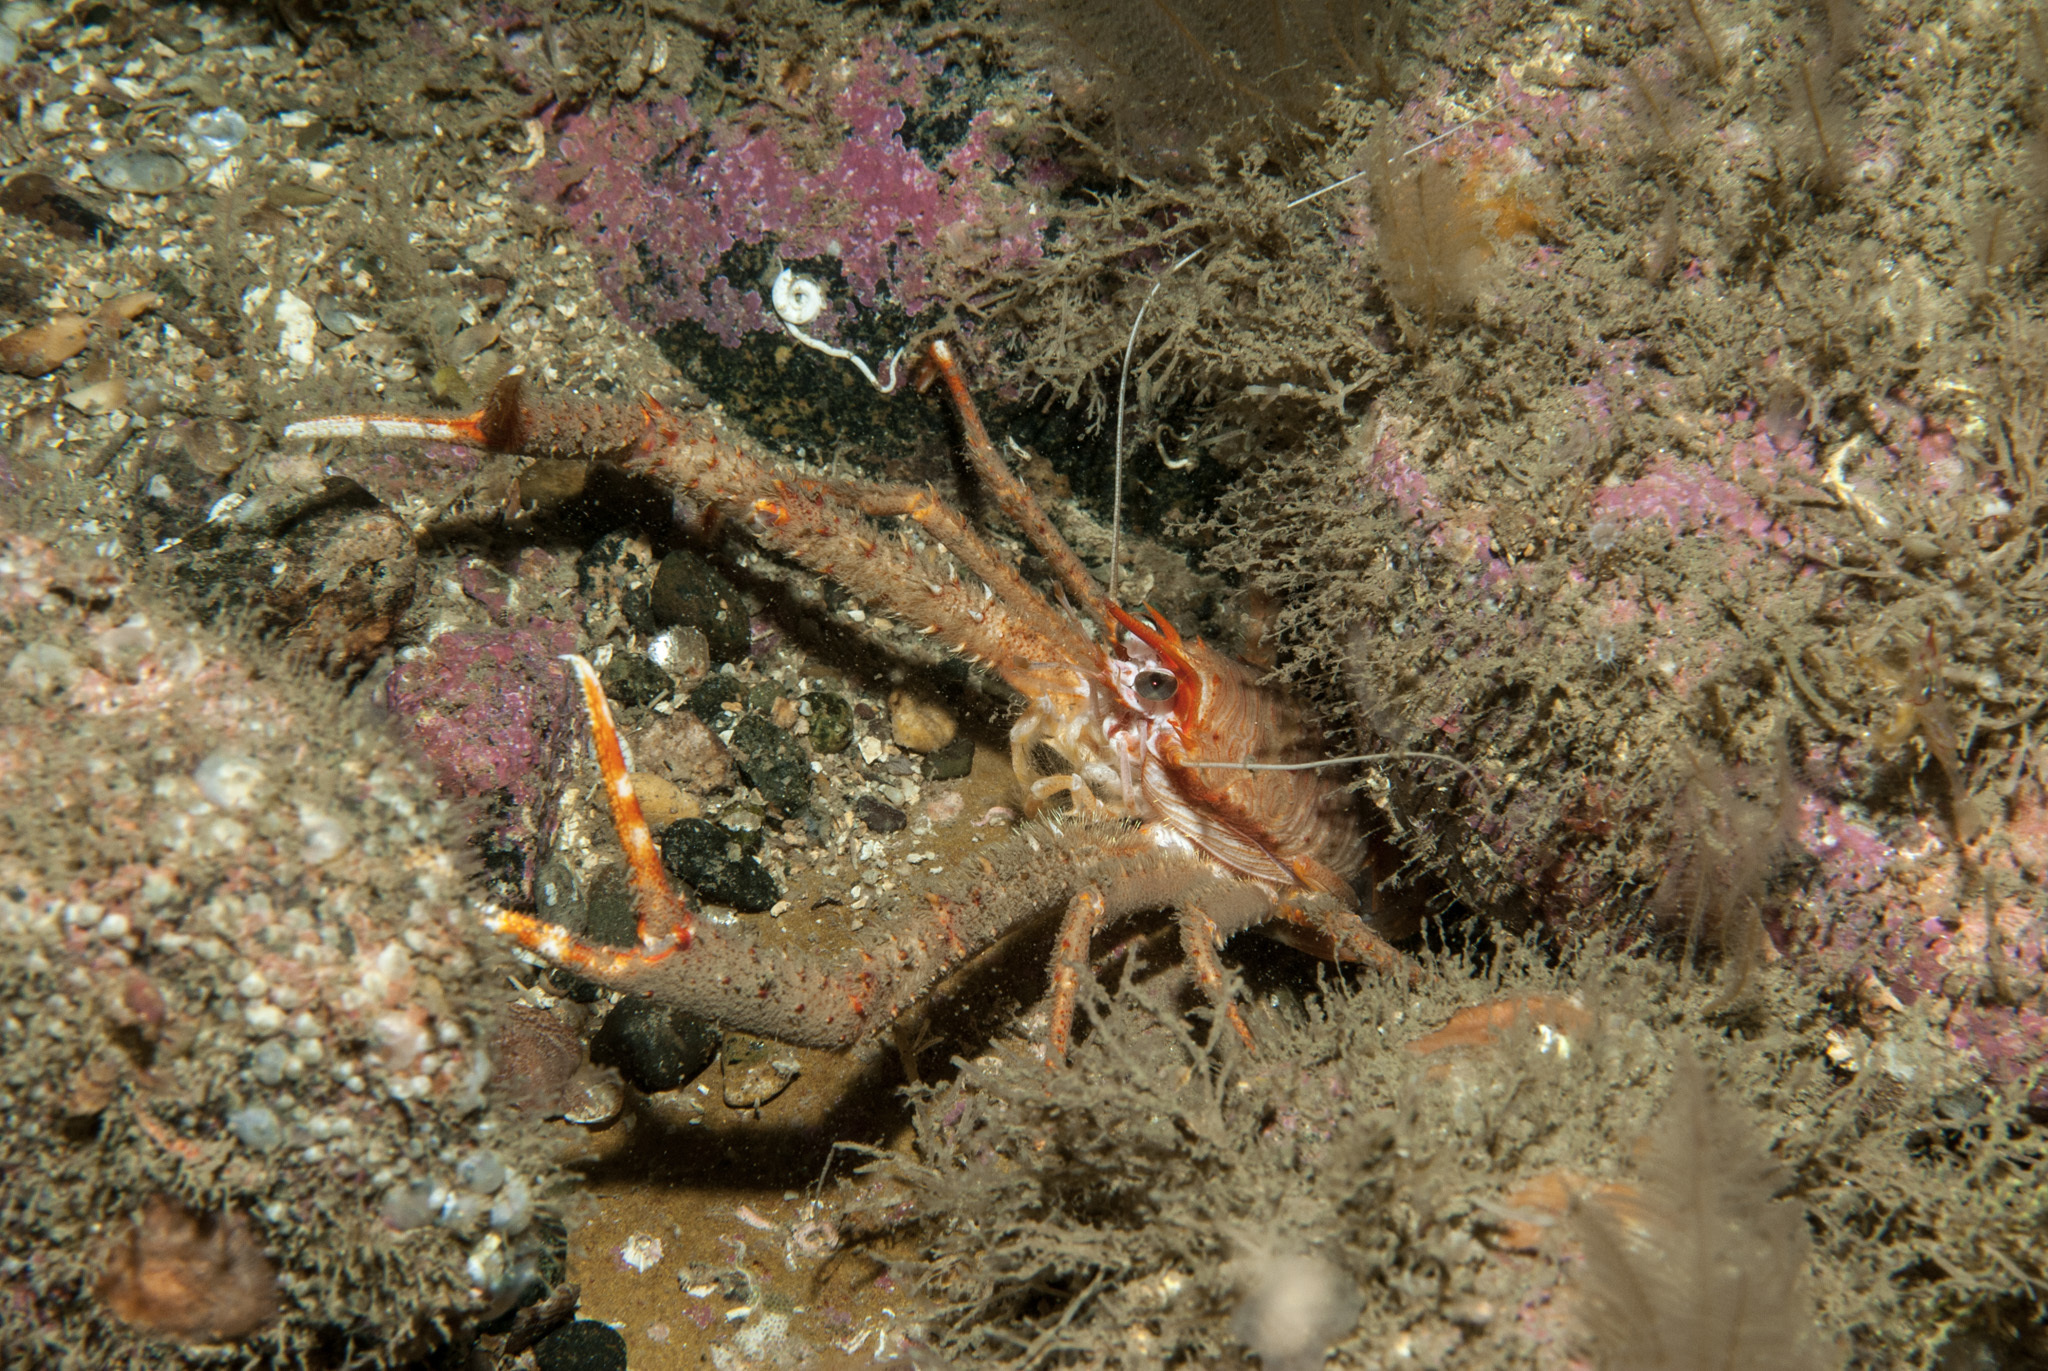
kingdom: Animalia
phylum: Arthropoda
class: Malacostraca
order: Decapoda
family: Munididae
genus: Munida
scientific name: Munida rugosa
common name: Rugose squat lobster
